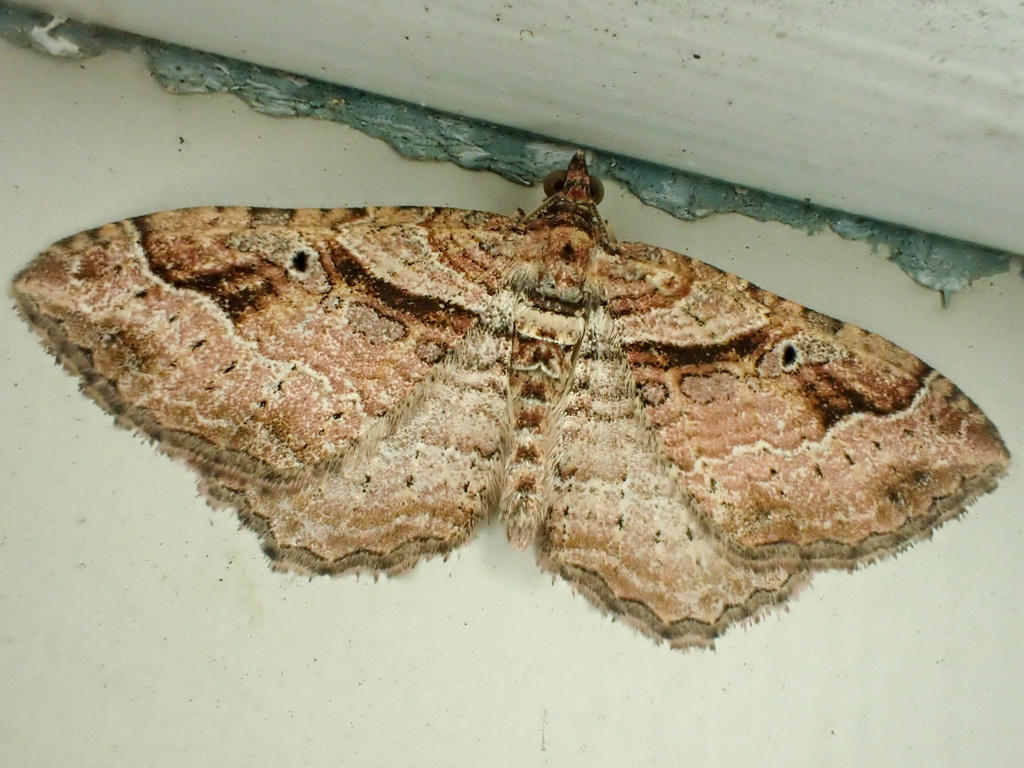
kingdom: Animalia
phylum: Arthropoda
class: Insecta
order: Lepidoptera
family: Geometridae
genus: Costaconvexa
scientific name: Costaconvexa centrostrigaria
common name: Bent-line carpet
